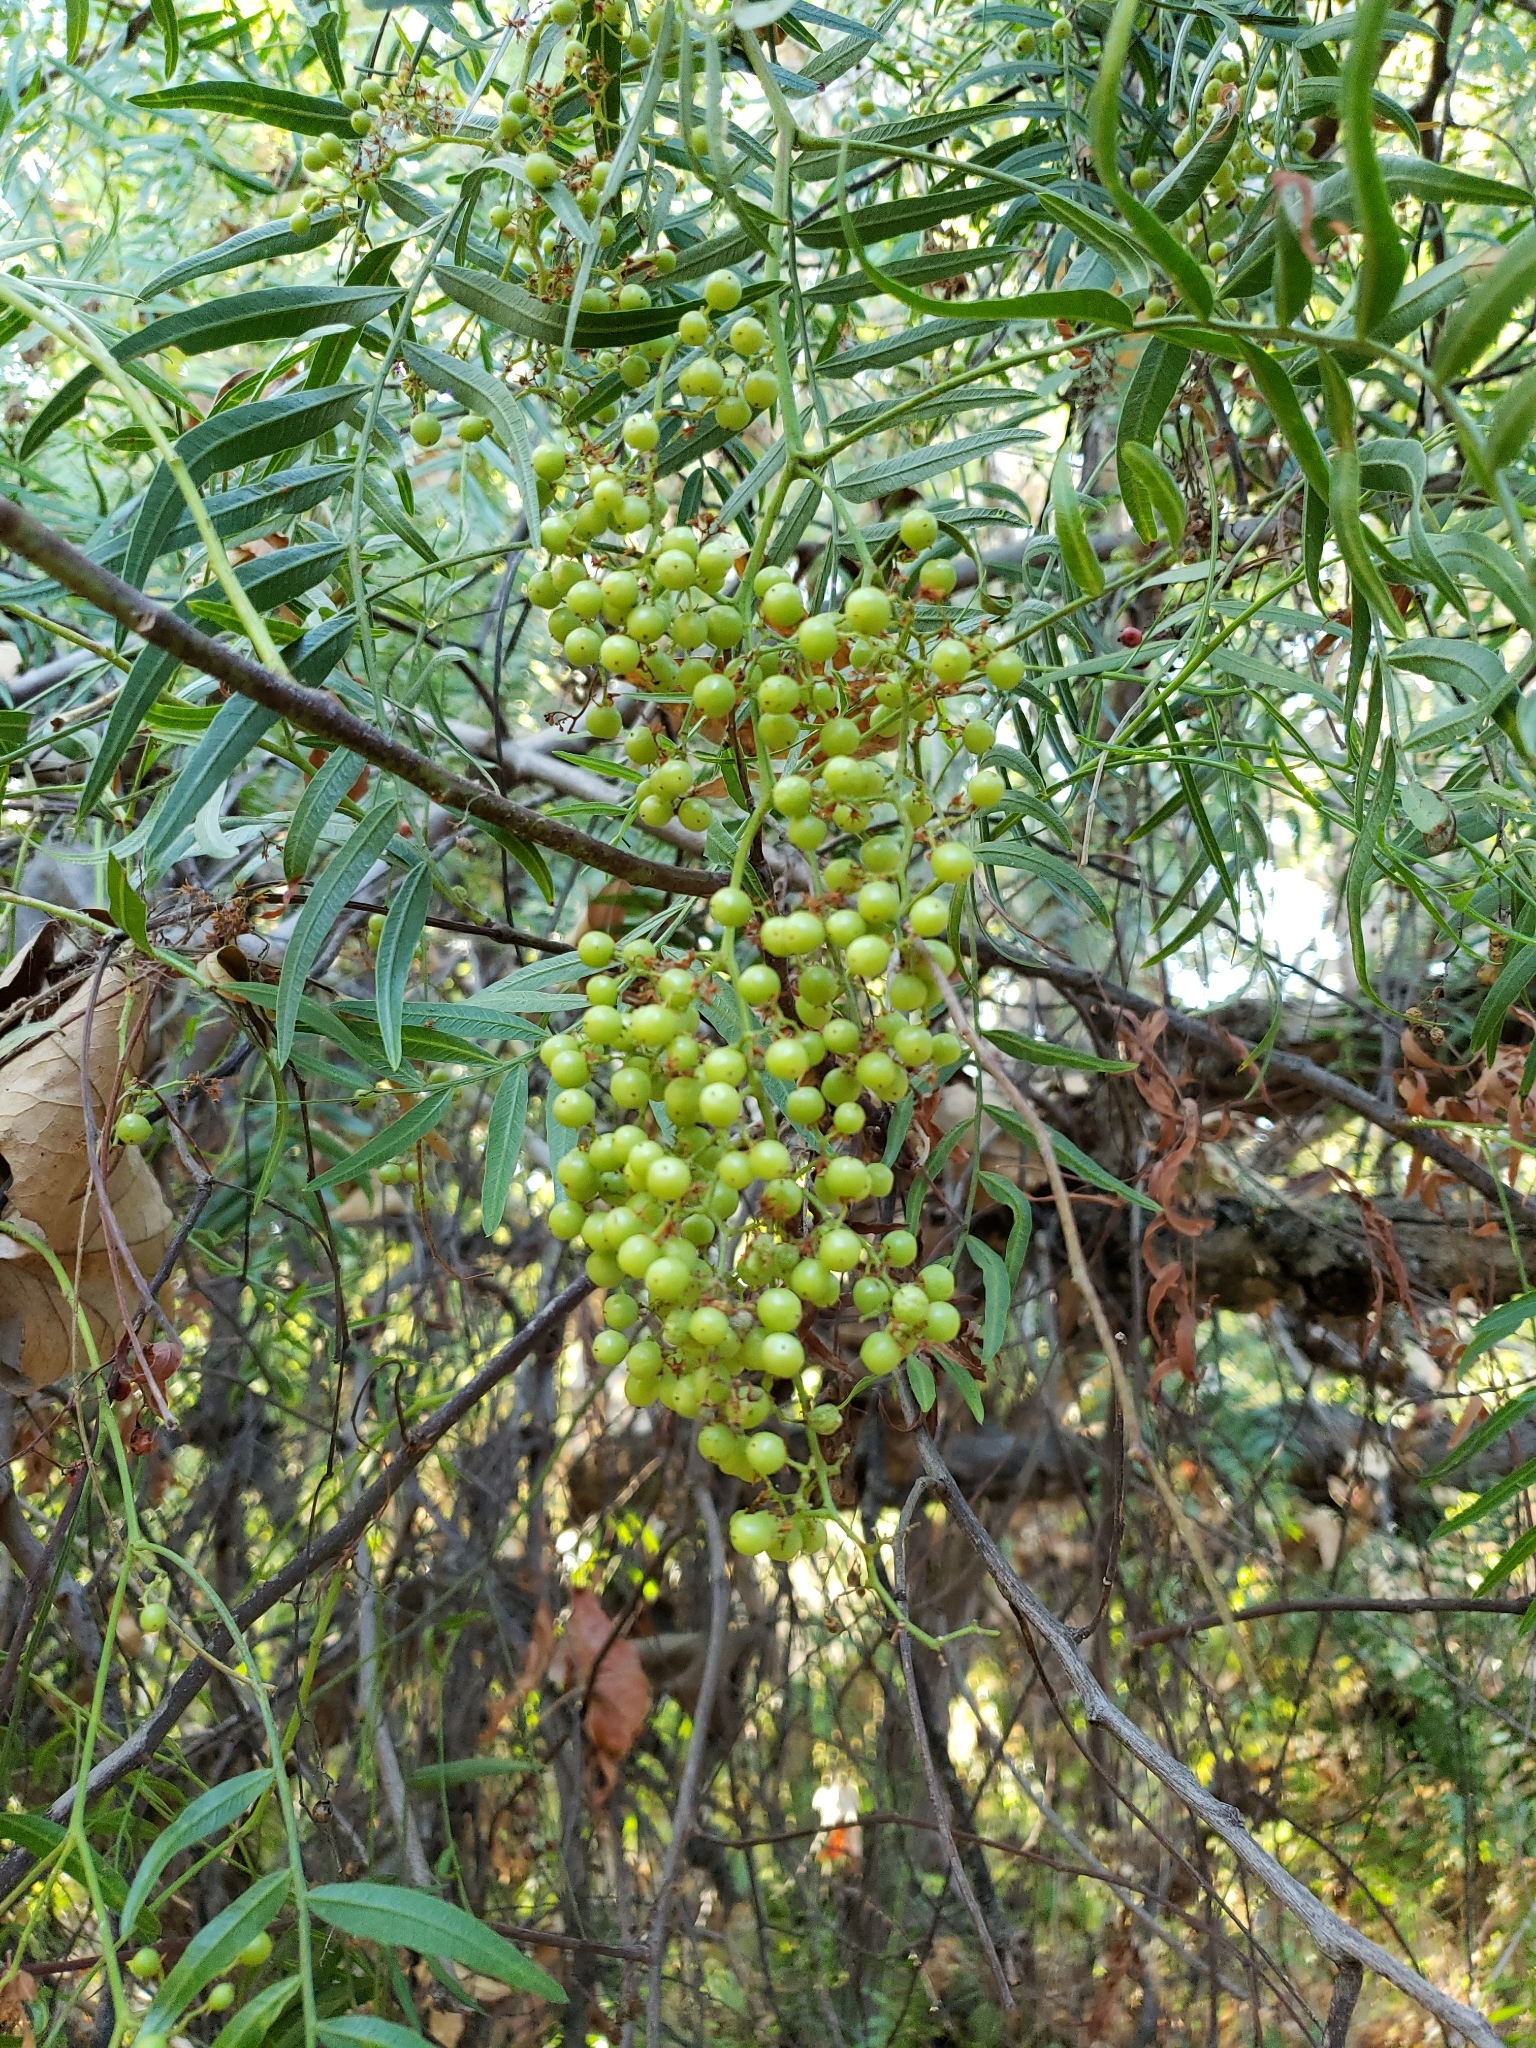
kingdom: Plantae
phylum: Tracheophyta
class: Magnoliopsida
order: Sapindales
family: Anacardiaceae
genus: Schinus
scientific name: Schinus molle
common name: Peruvian peppertree
